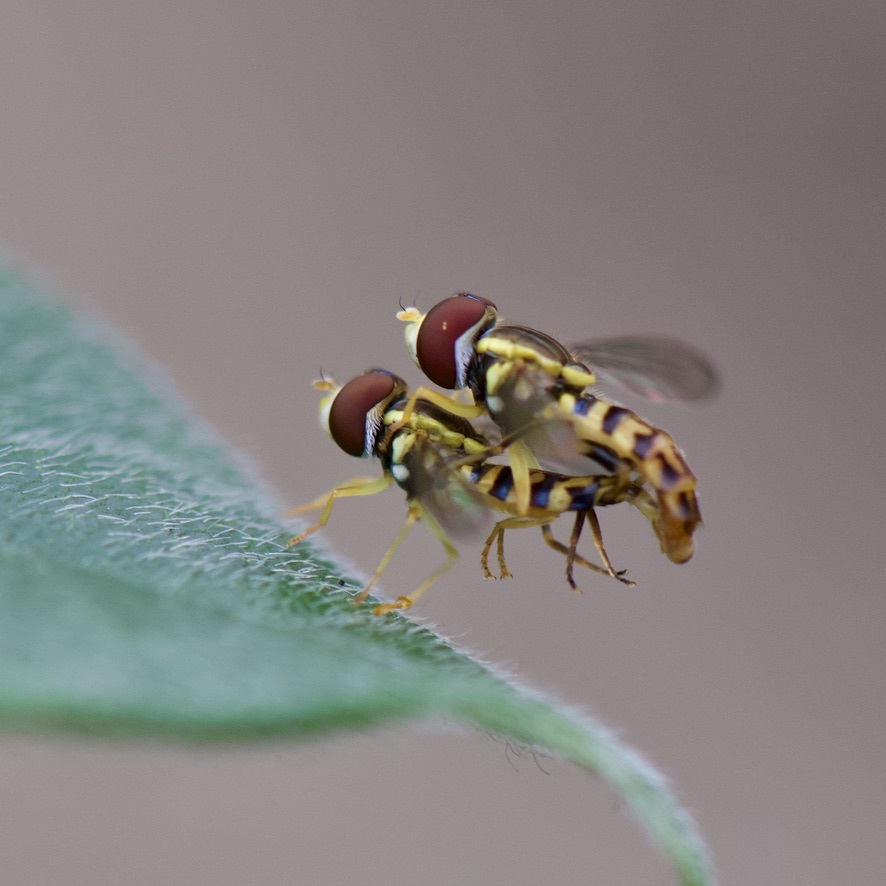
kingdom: Animalia
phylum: Arthropoda
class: Insecta
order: Diptera
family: Syrphidae
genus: Toxomerus
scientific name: Toxomerus geminatus
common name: Eastern calligrapher
